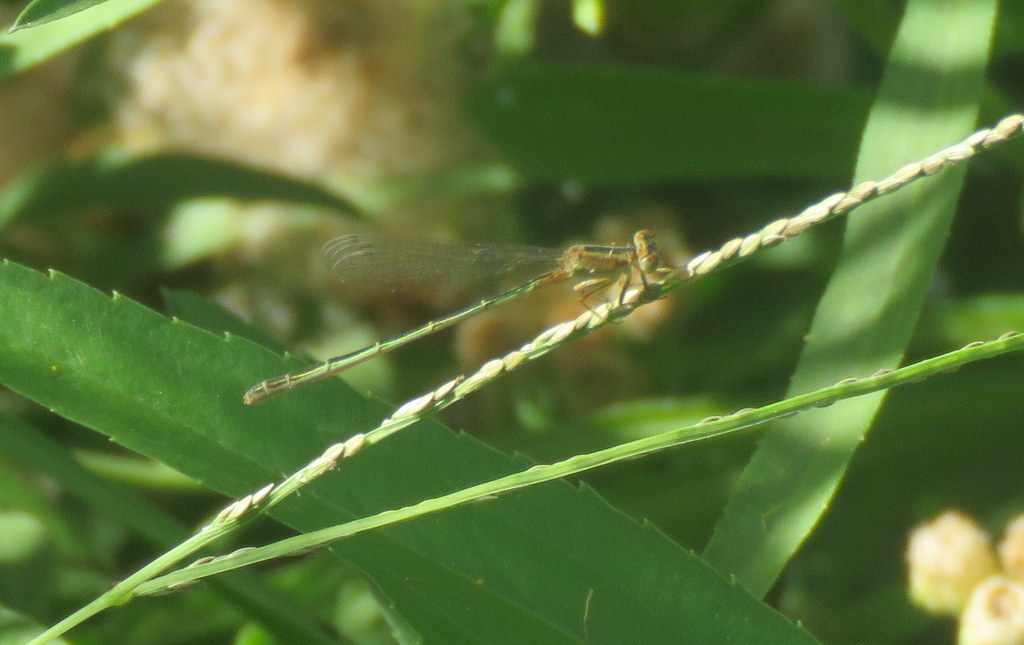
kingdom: Animalia
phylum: Arthropoda
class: Insecta
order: Odonata
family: Coenagrionidae
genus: Ischnura
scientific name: Ischnura fluviatilis
